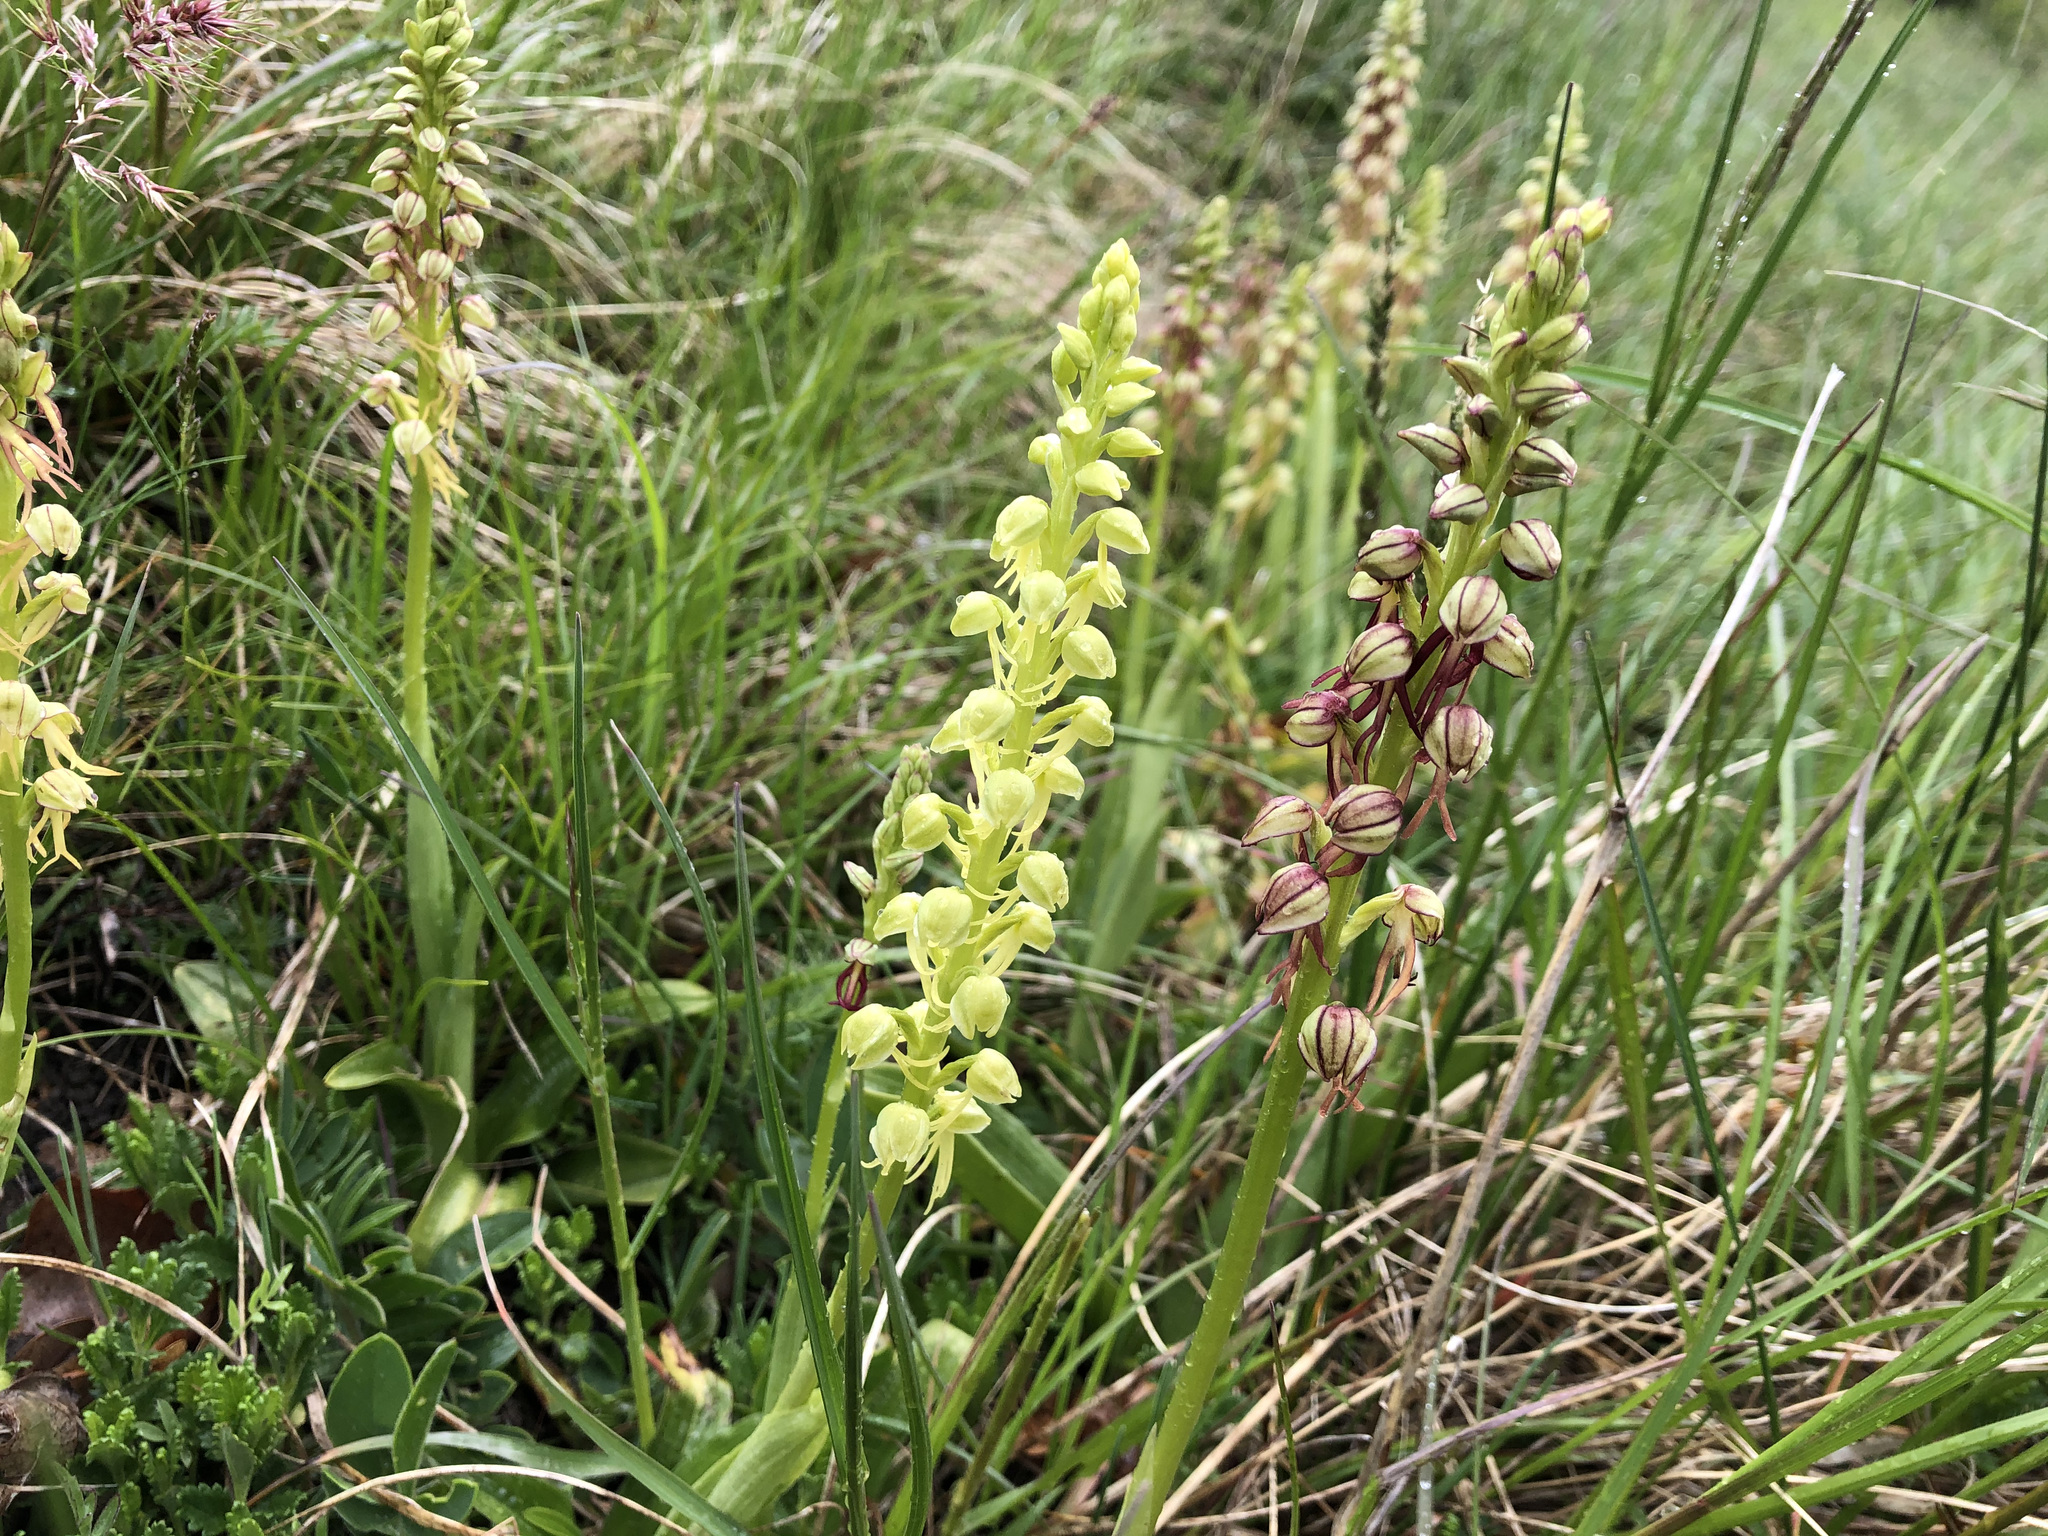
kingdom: Plantae
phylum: Tracheophyta
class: Liliopsida
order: Asparagales
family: Orchidaceae
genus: Orchis
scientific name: Orchis anthropophora
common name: Man orchid
